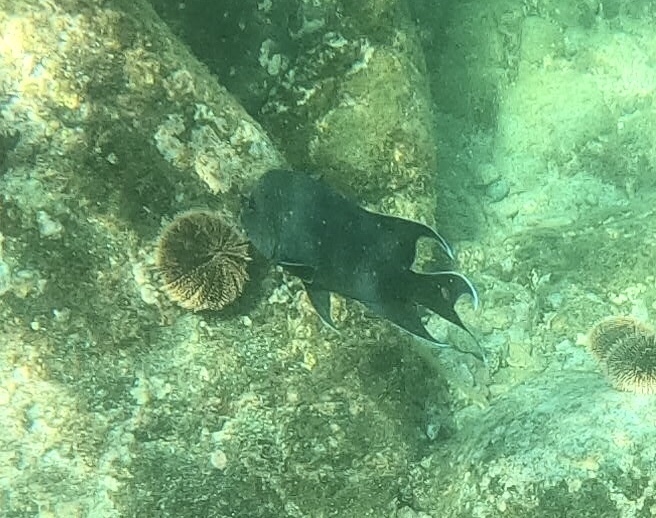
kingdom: Animalia
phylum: Chordata
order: Perciformes
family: Pomacentridae
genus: Microspathodon
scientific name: Microspathodon dorsalis
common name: Giant damselfish
